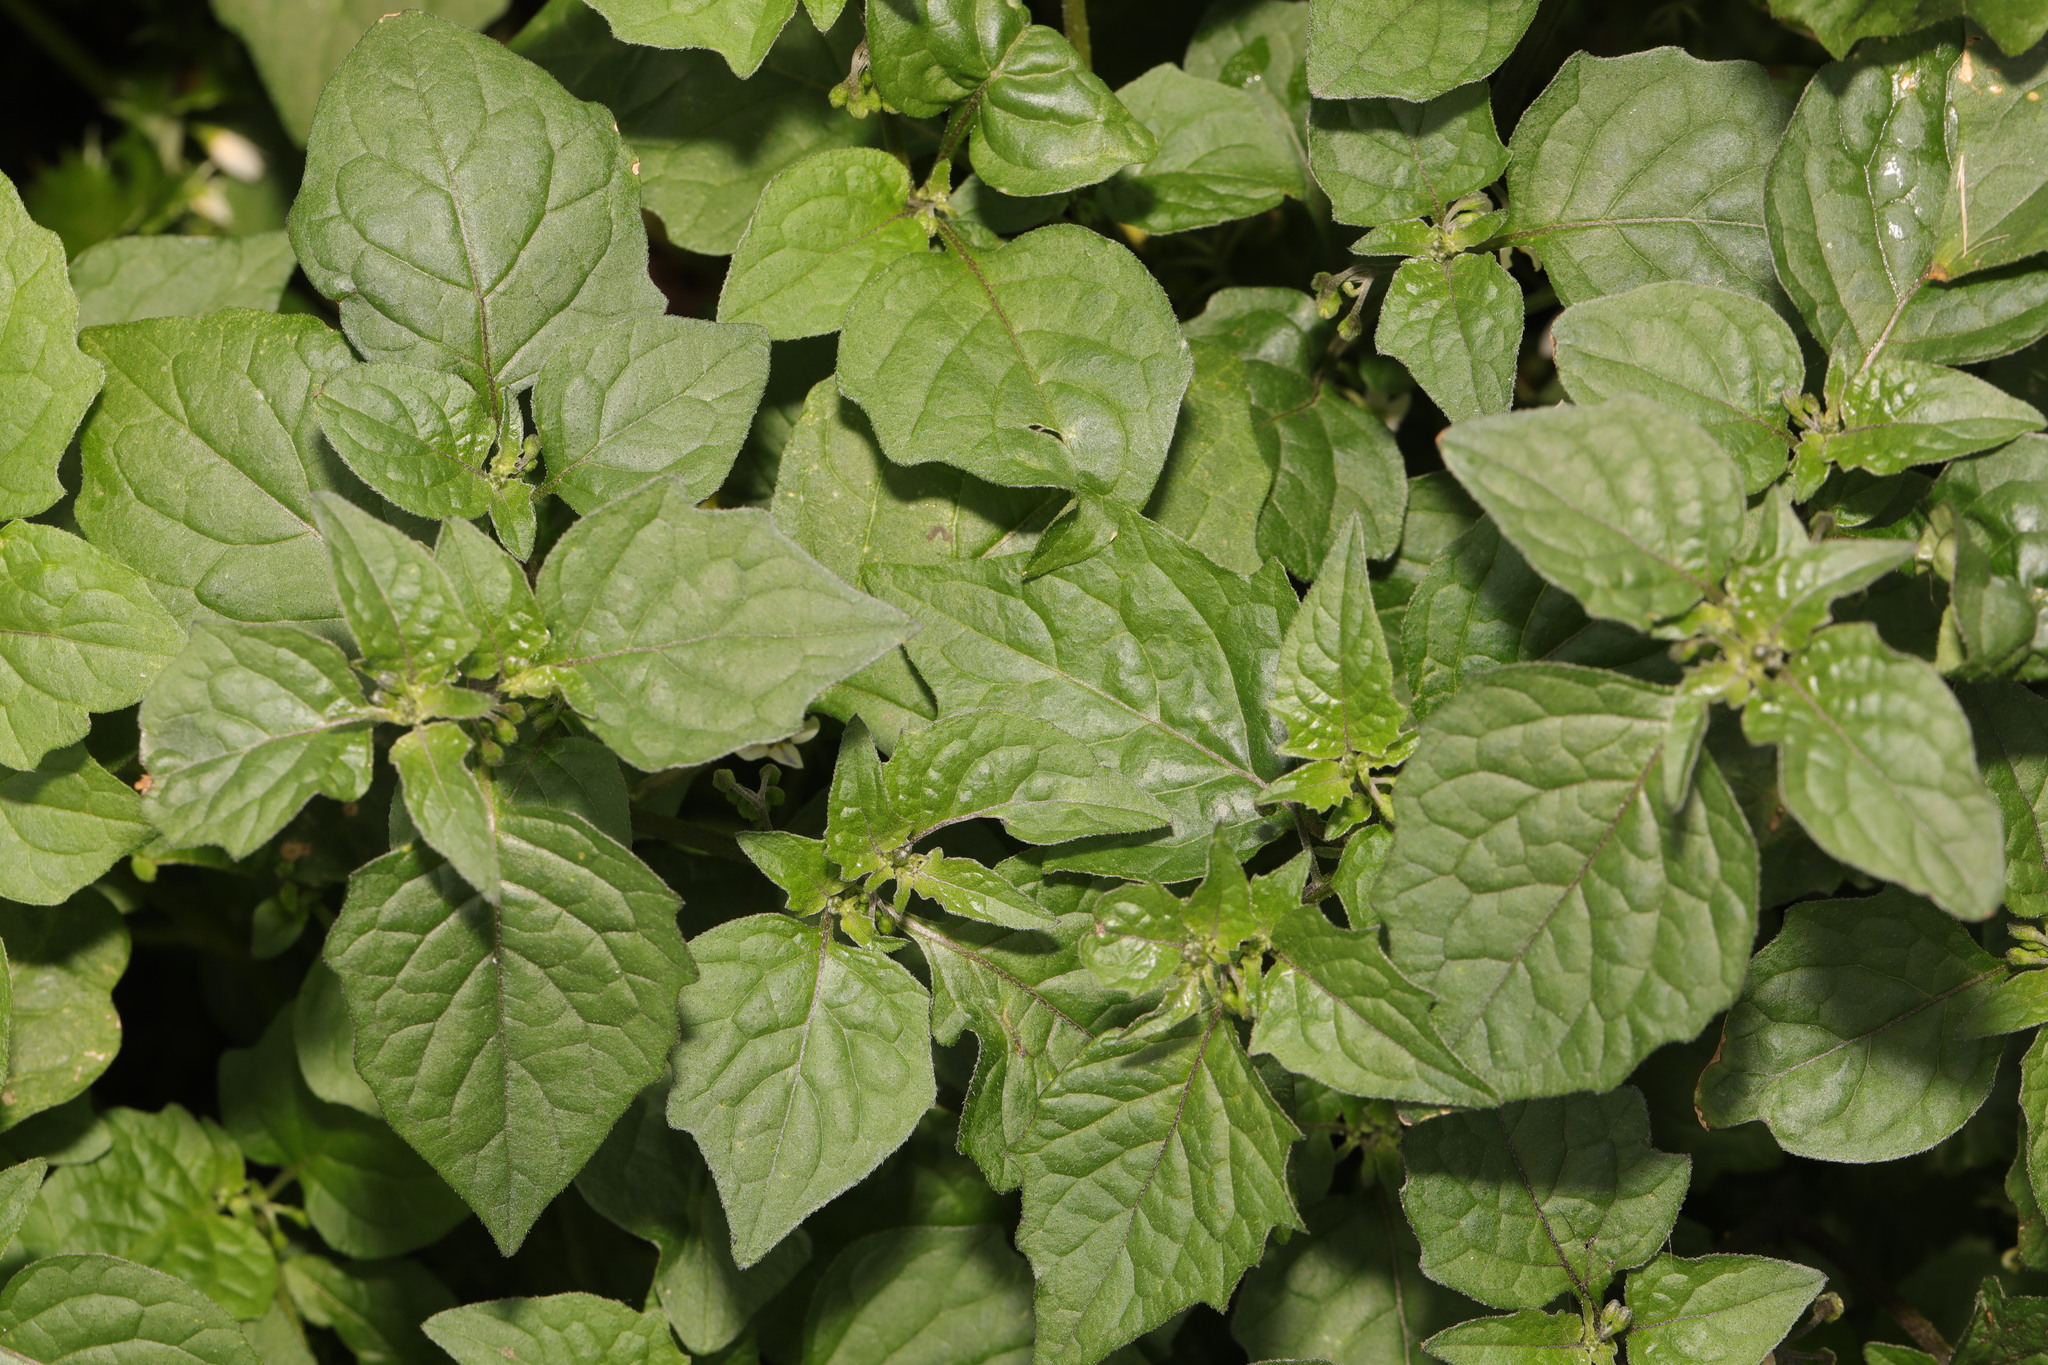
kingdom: Plantae
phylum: Tracheophyta
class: Magnoliopsida
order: Solanales
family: Solanaceae
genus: Solanum
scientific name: Solanum nigrum
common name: Black nightshade
